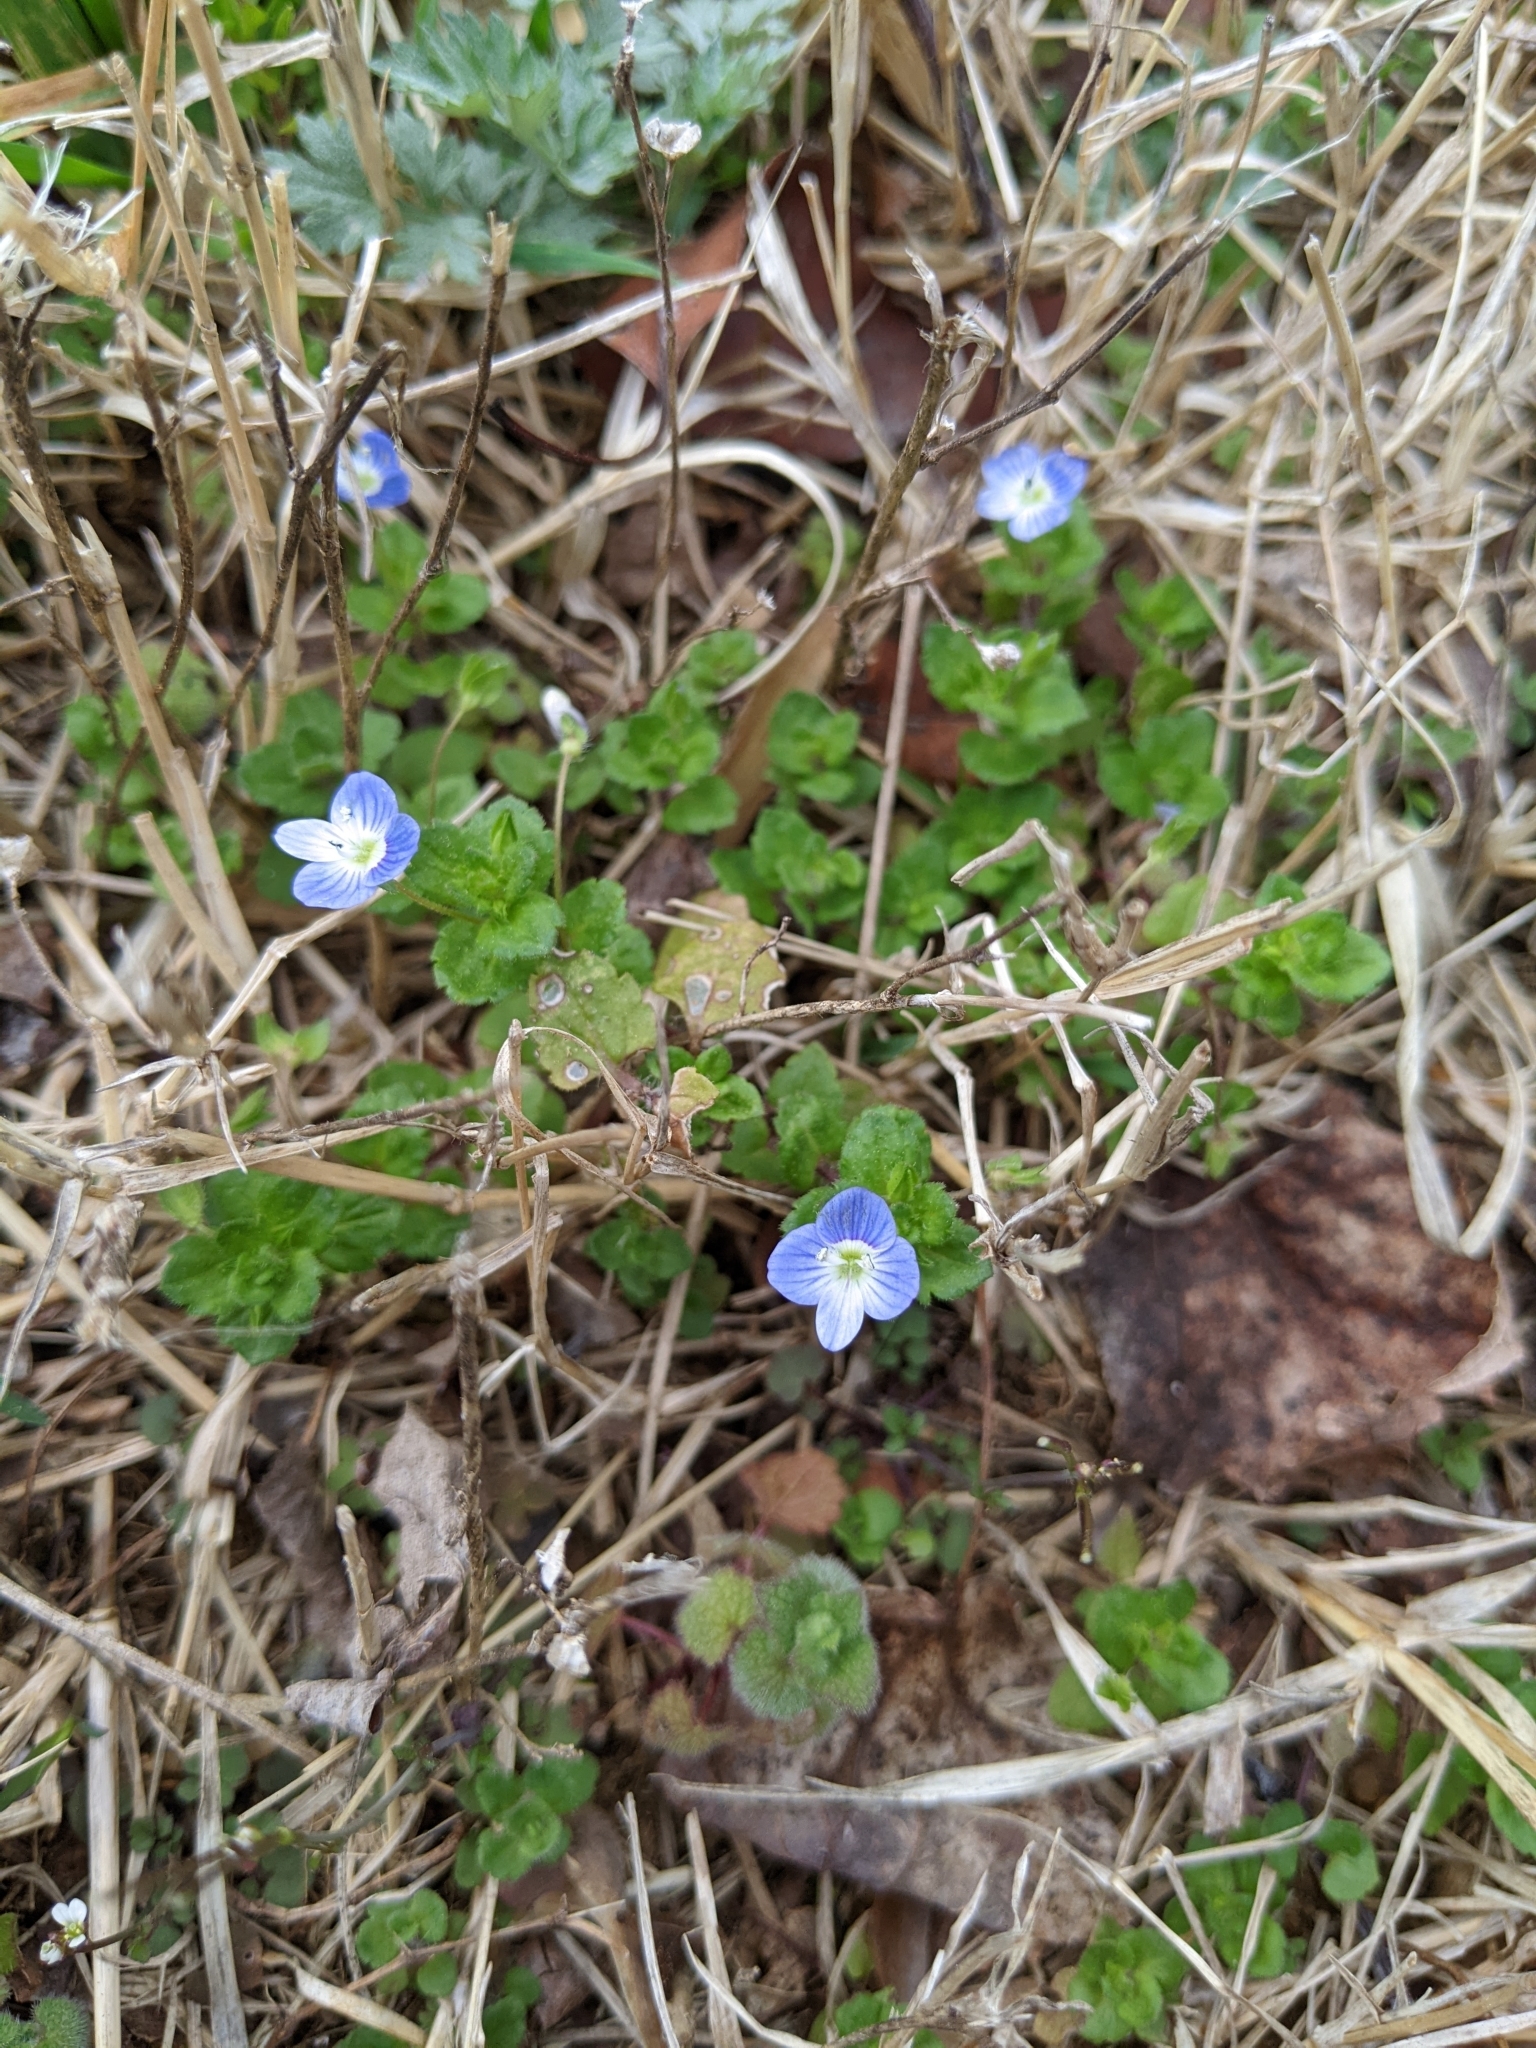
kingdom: Plantae
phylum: Tracheophyta
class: Magnoliopsida
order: Lamiales
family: Plantaginaceae
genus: Veronica
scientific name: Veronica persica
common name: Common field-speedwell
